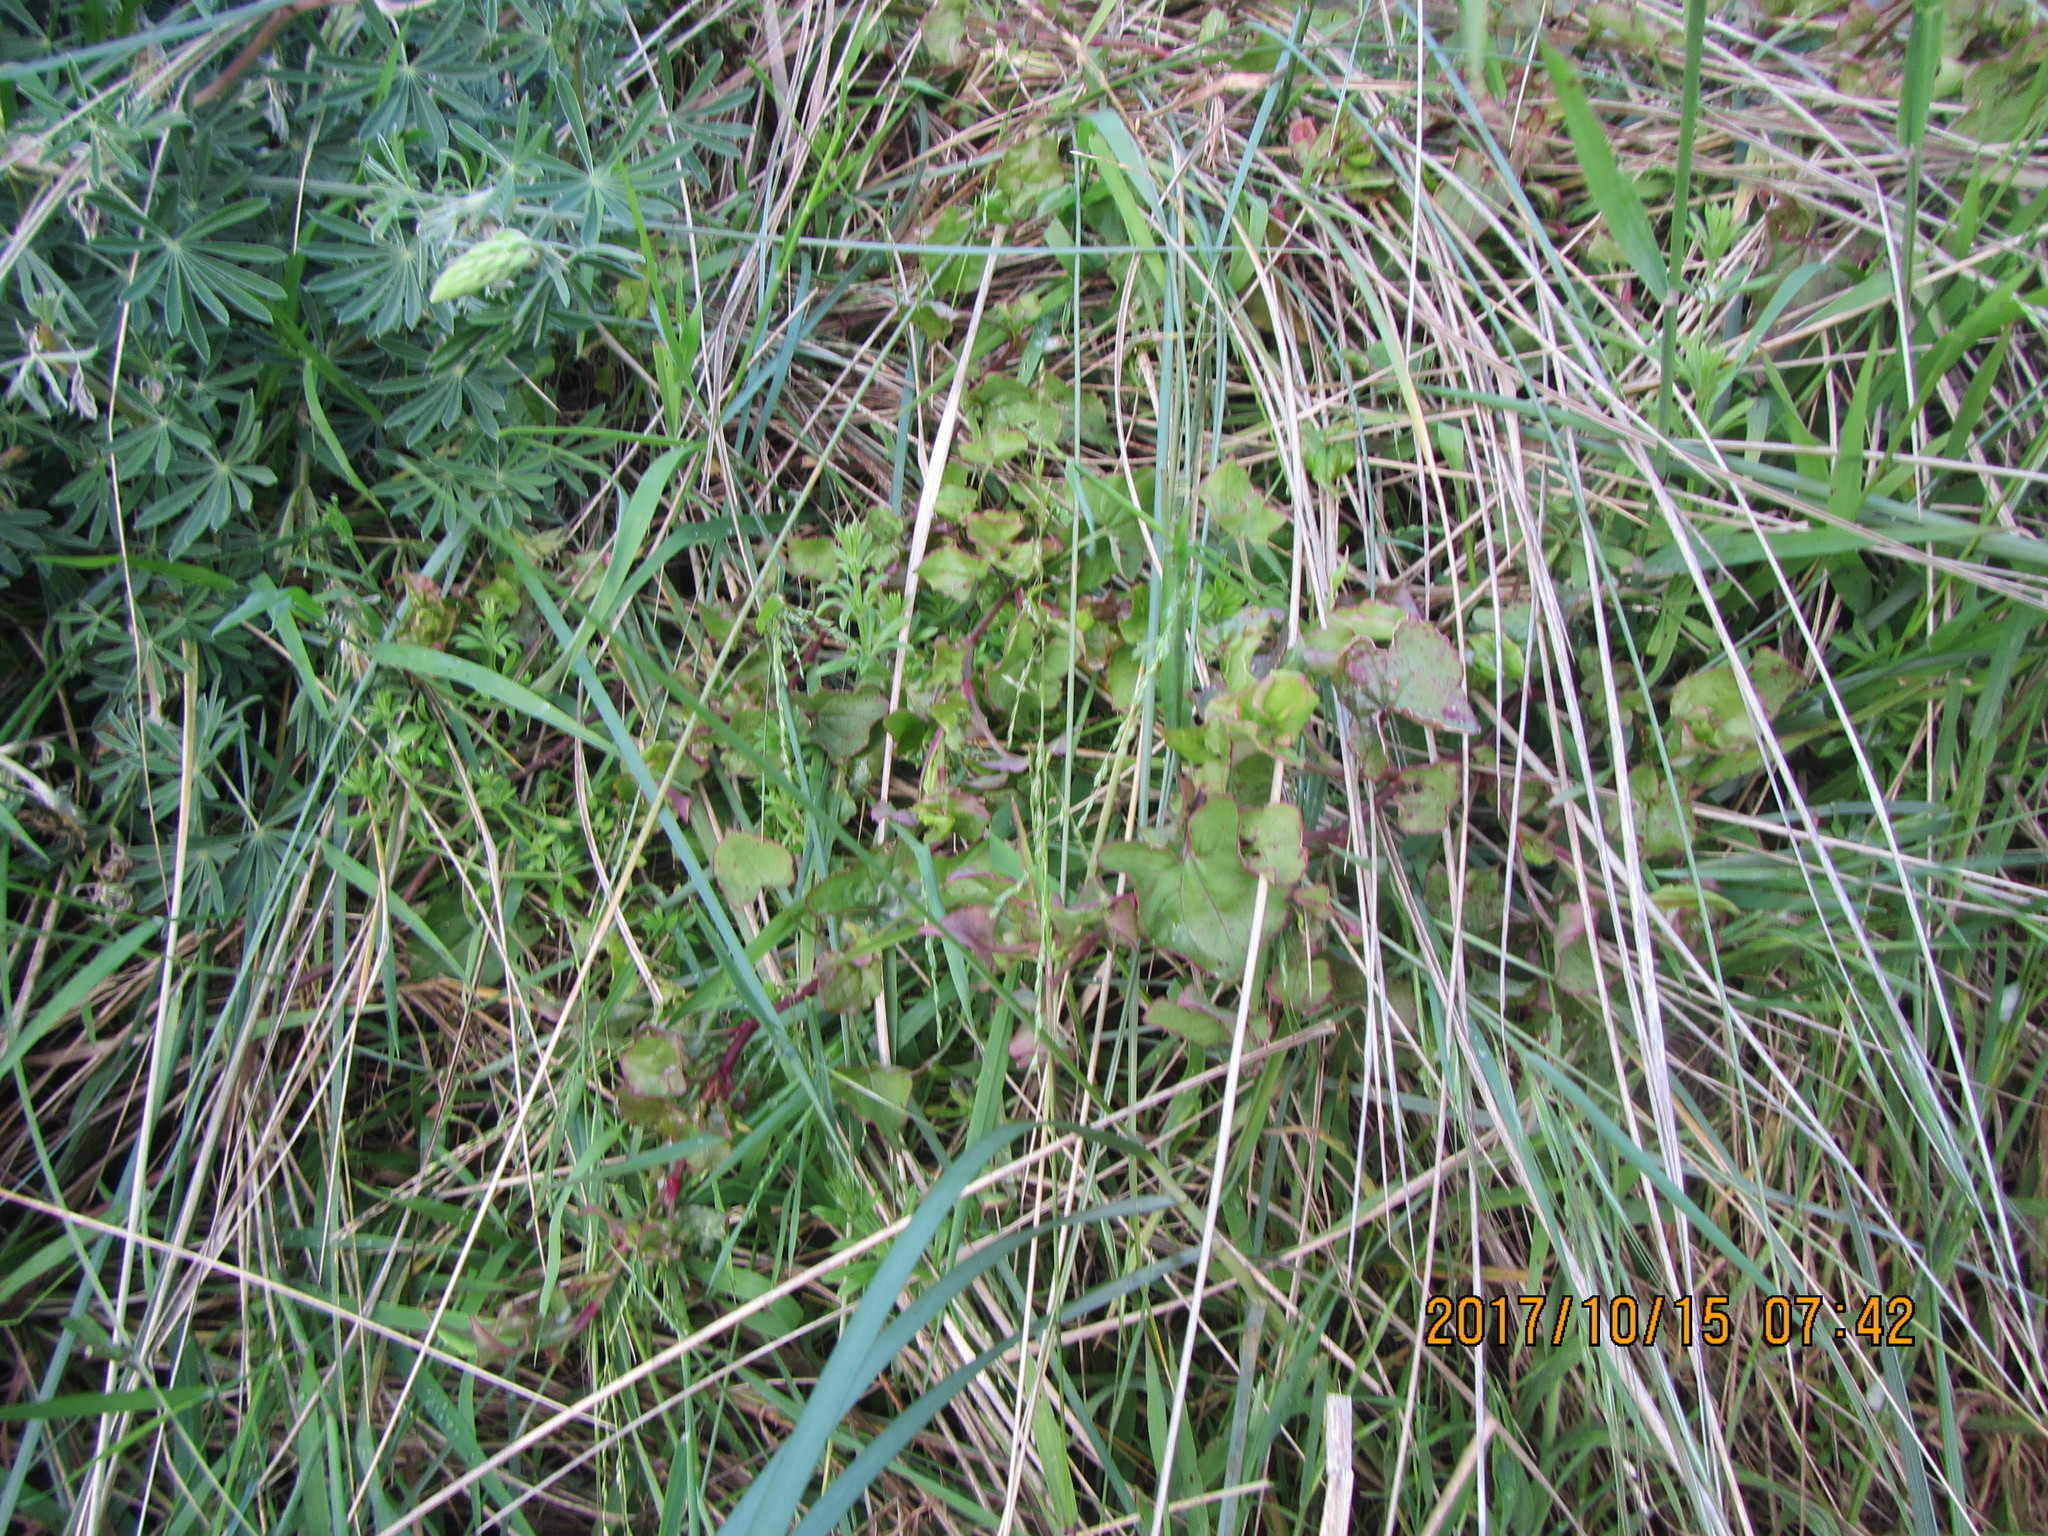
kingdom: Plantae
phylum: Tracheophyta
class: Magnoliopsida
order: Caryophyllales
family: Polygonaceae
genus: Rumex
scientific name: Rumex sagittatus
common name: Climbing dock
